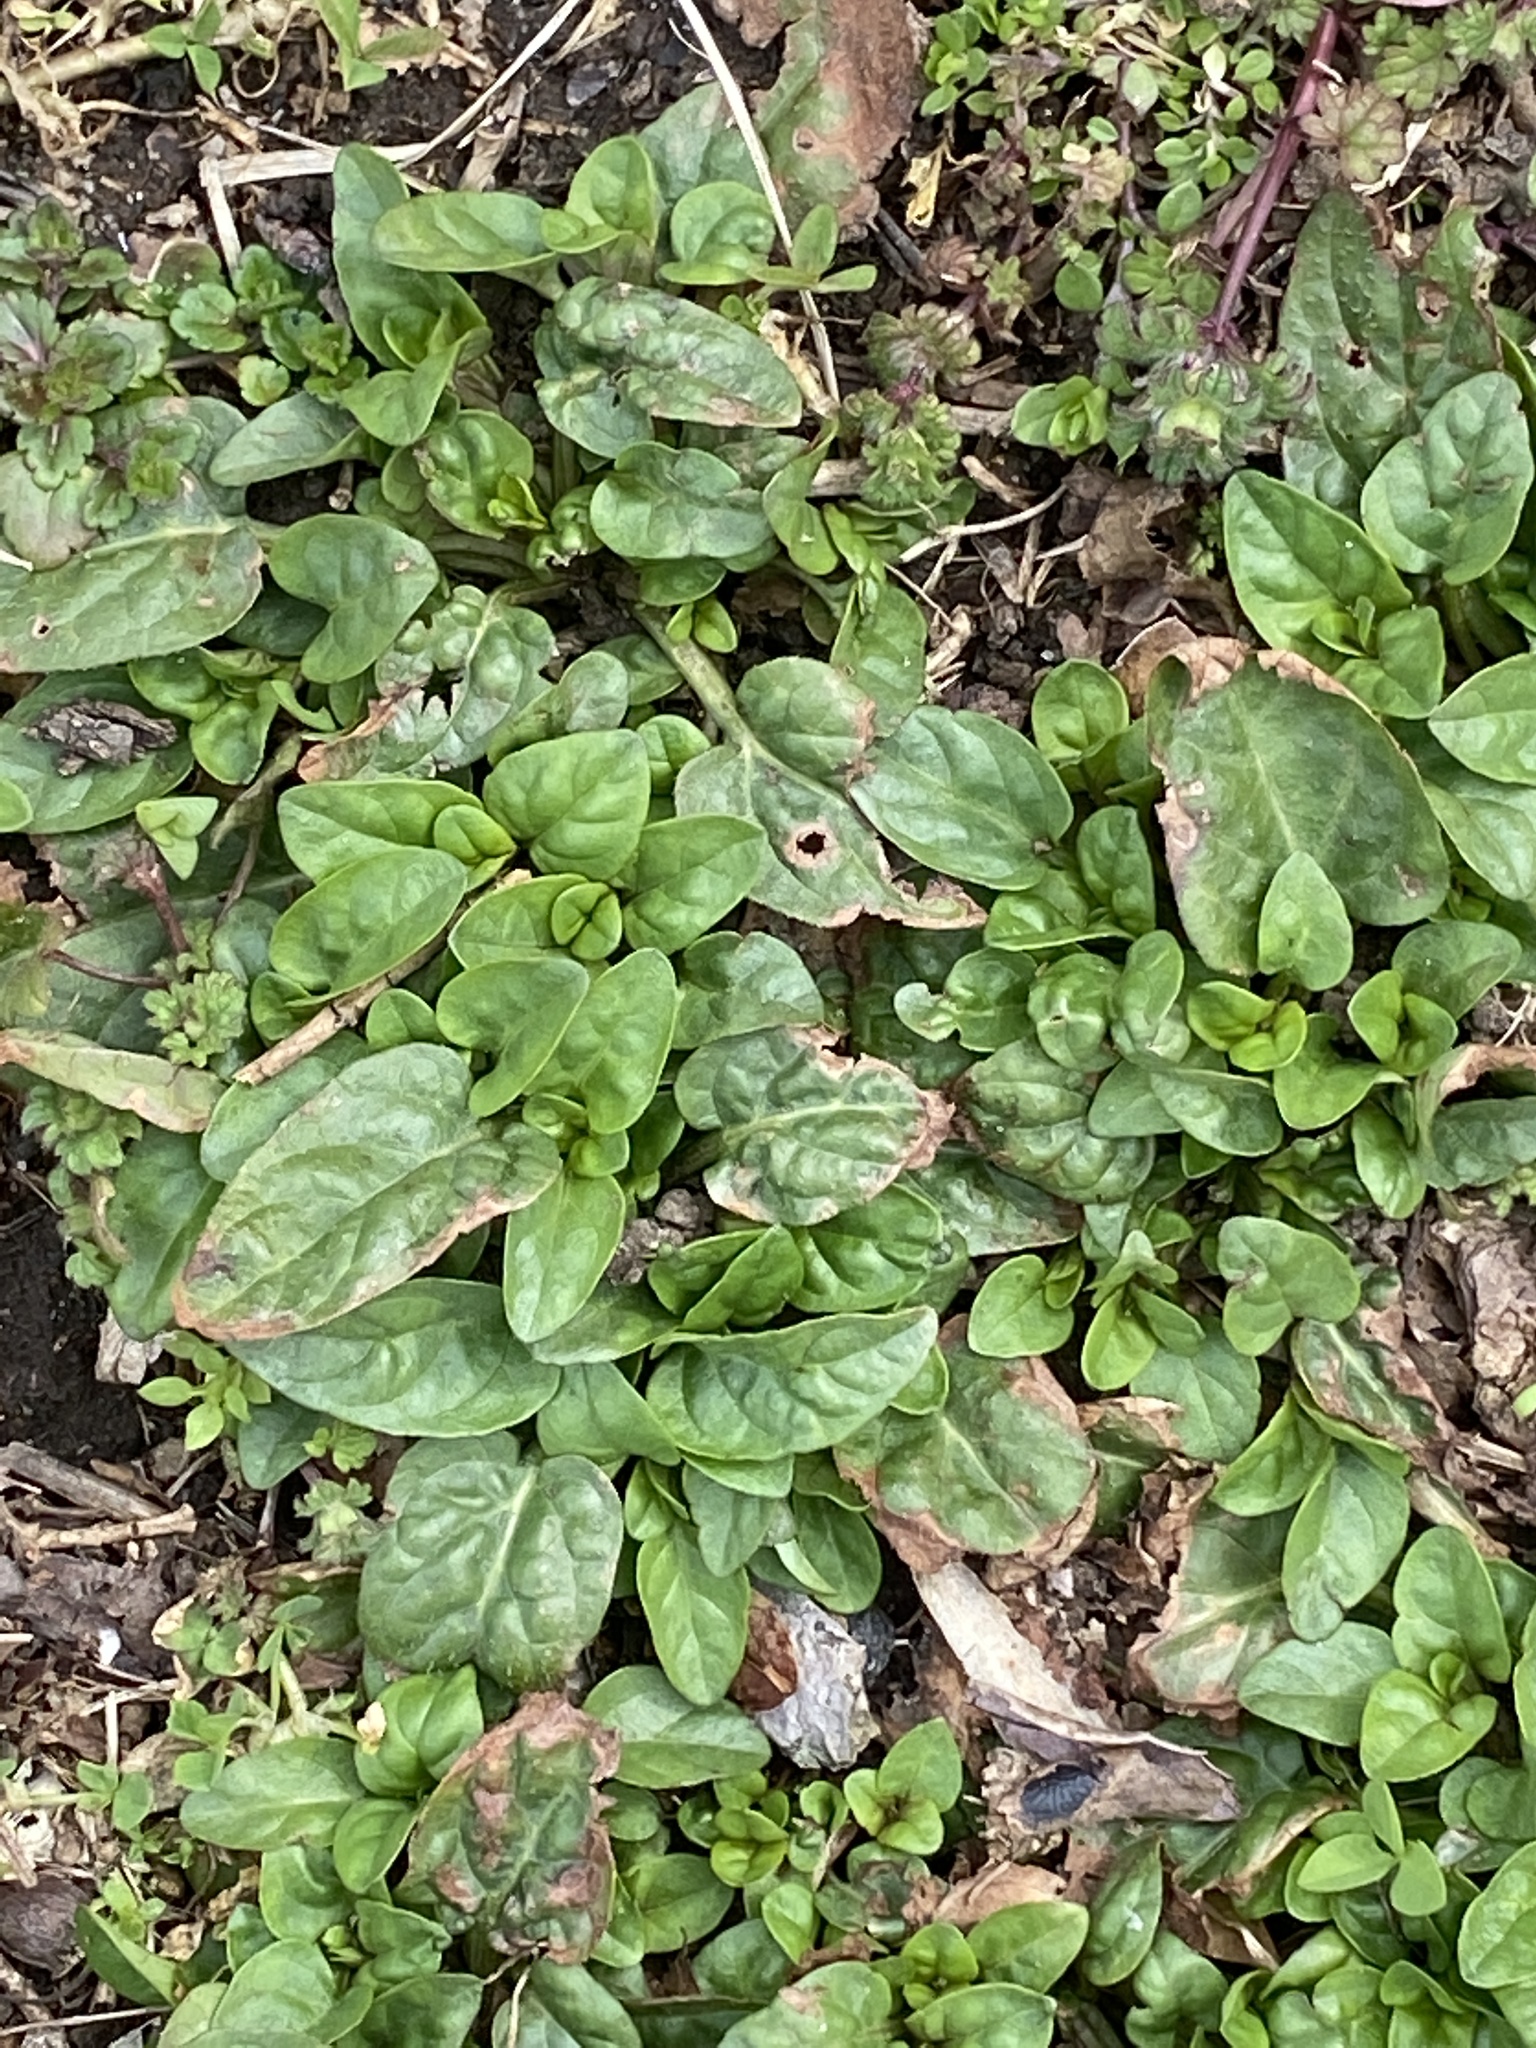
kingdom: Plantae
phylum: Tracheophyta
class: Magnoliopsida
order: Lamiales
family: Lamiaceae
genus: Prunella
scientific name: Prunella vulgaris
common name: Heal-all
